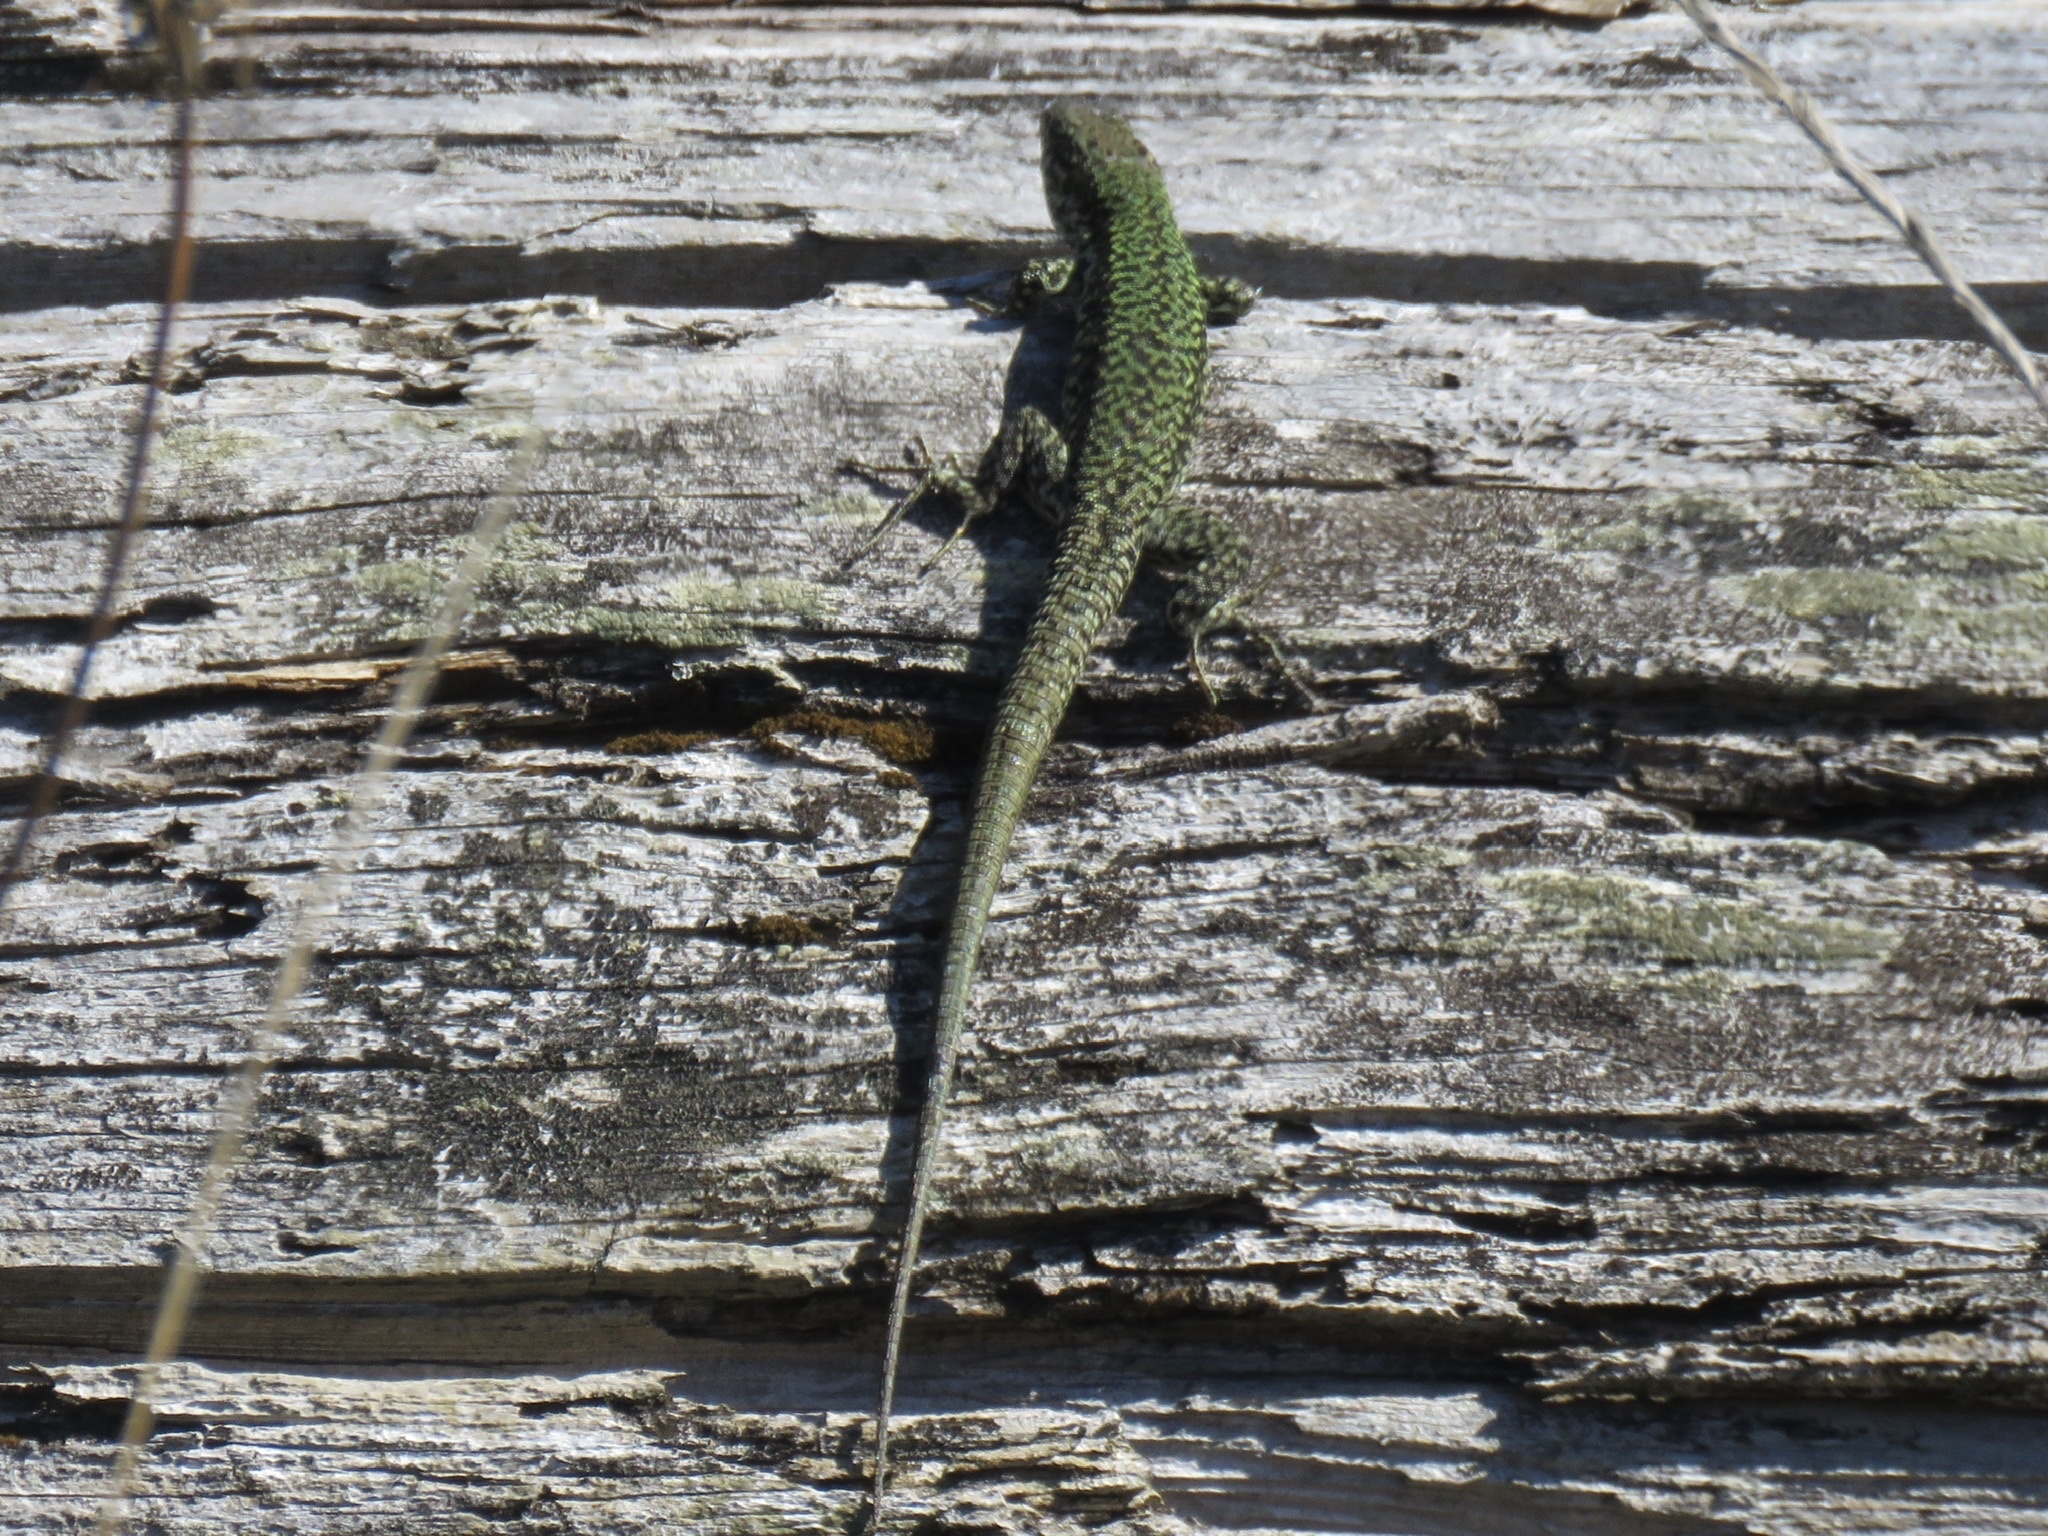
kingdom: Animalia
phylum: Chordata
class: Squamata
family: Lacertidae
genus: Podarcis
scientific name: Podarcis muralis
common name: Common wall lizard
